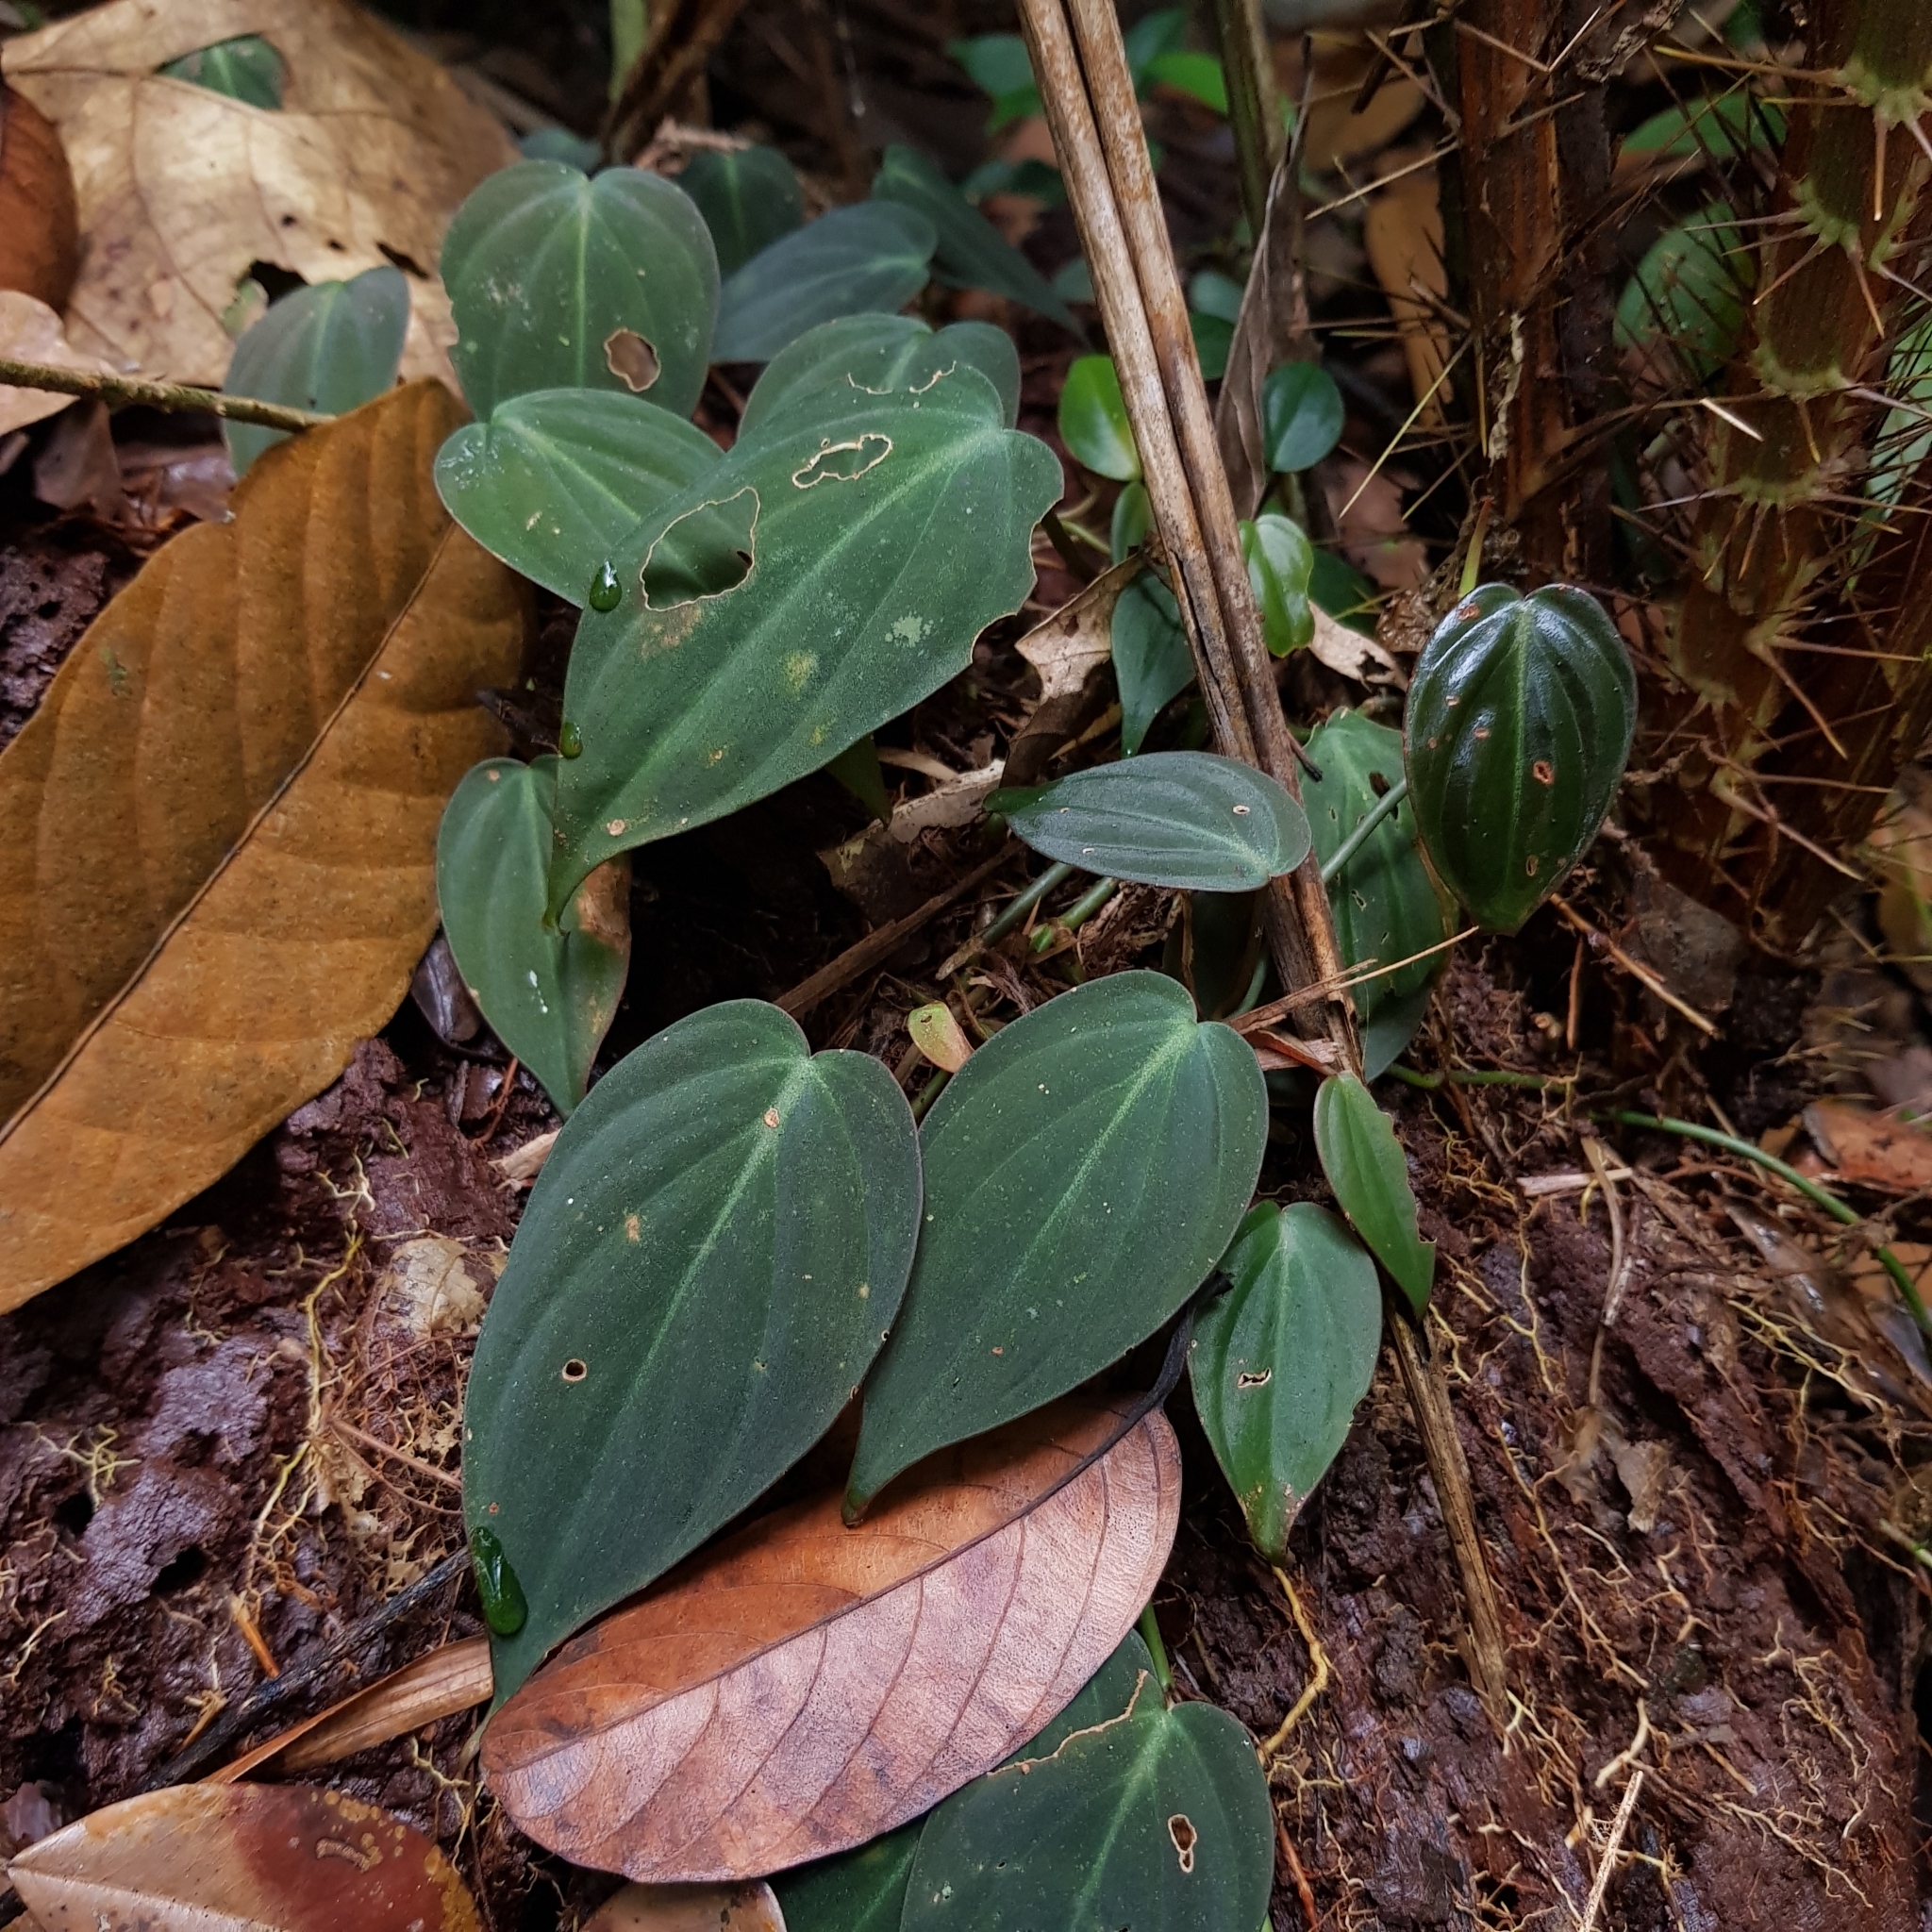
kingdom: Plantae
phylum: Tracheophyta
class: Liliopsida
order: Alismatales
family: Araceae
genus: Philodendron
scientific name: Philodendron hederaceum
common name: Vilevine
